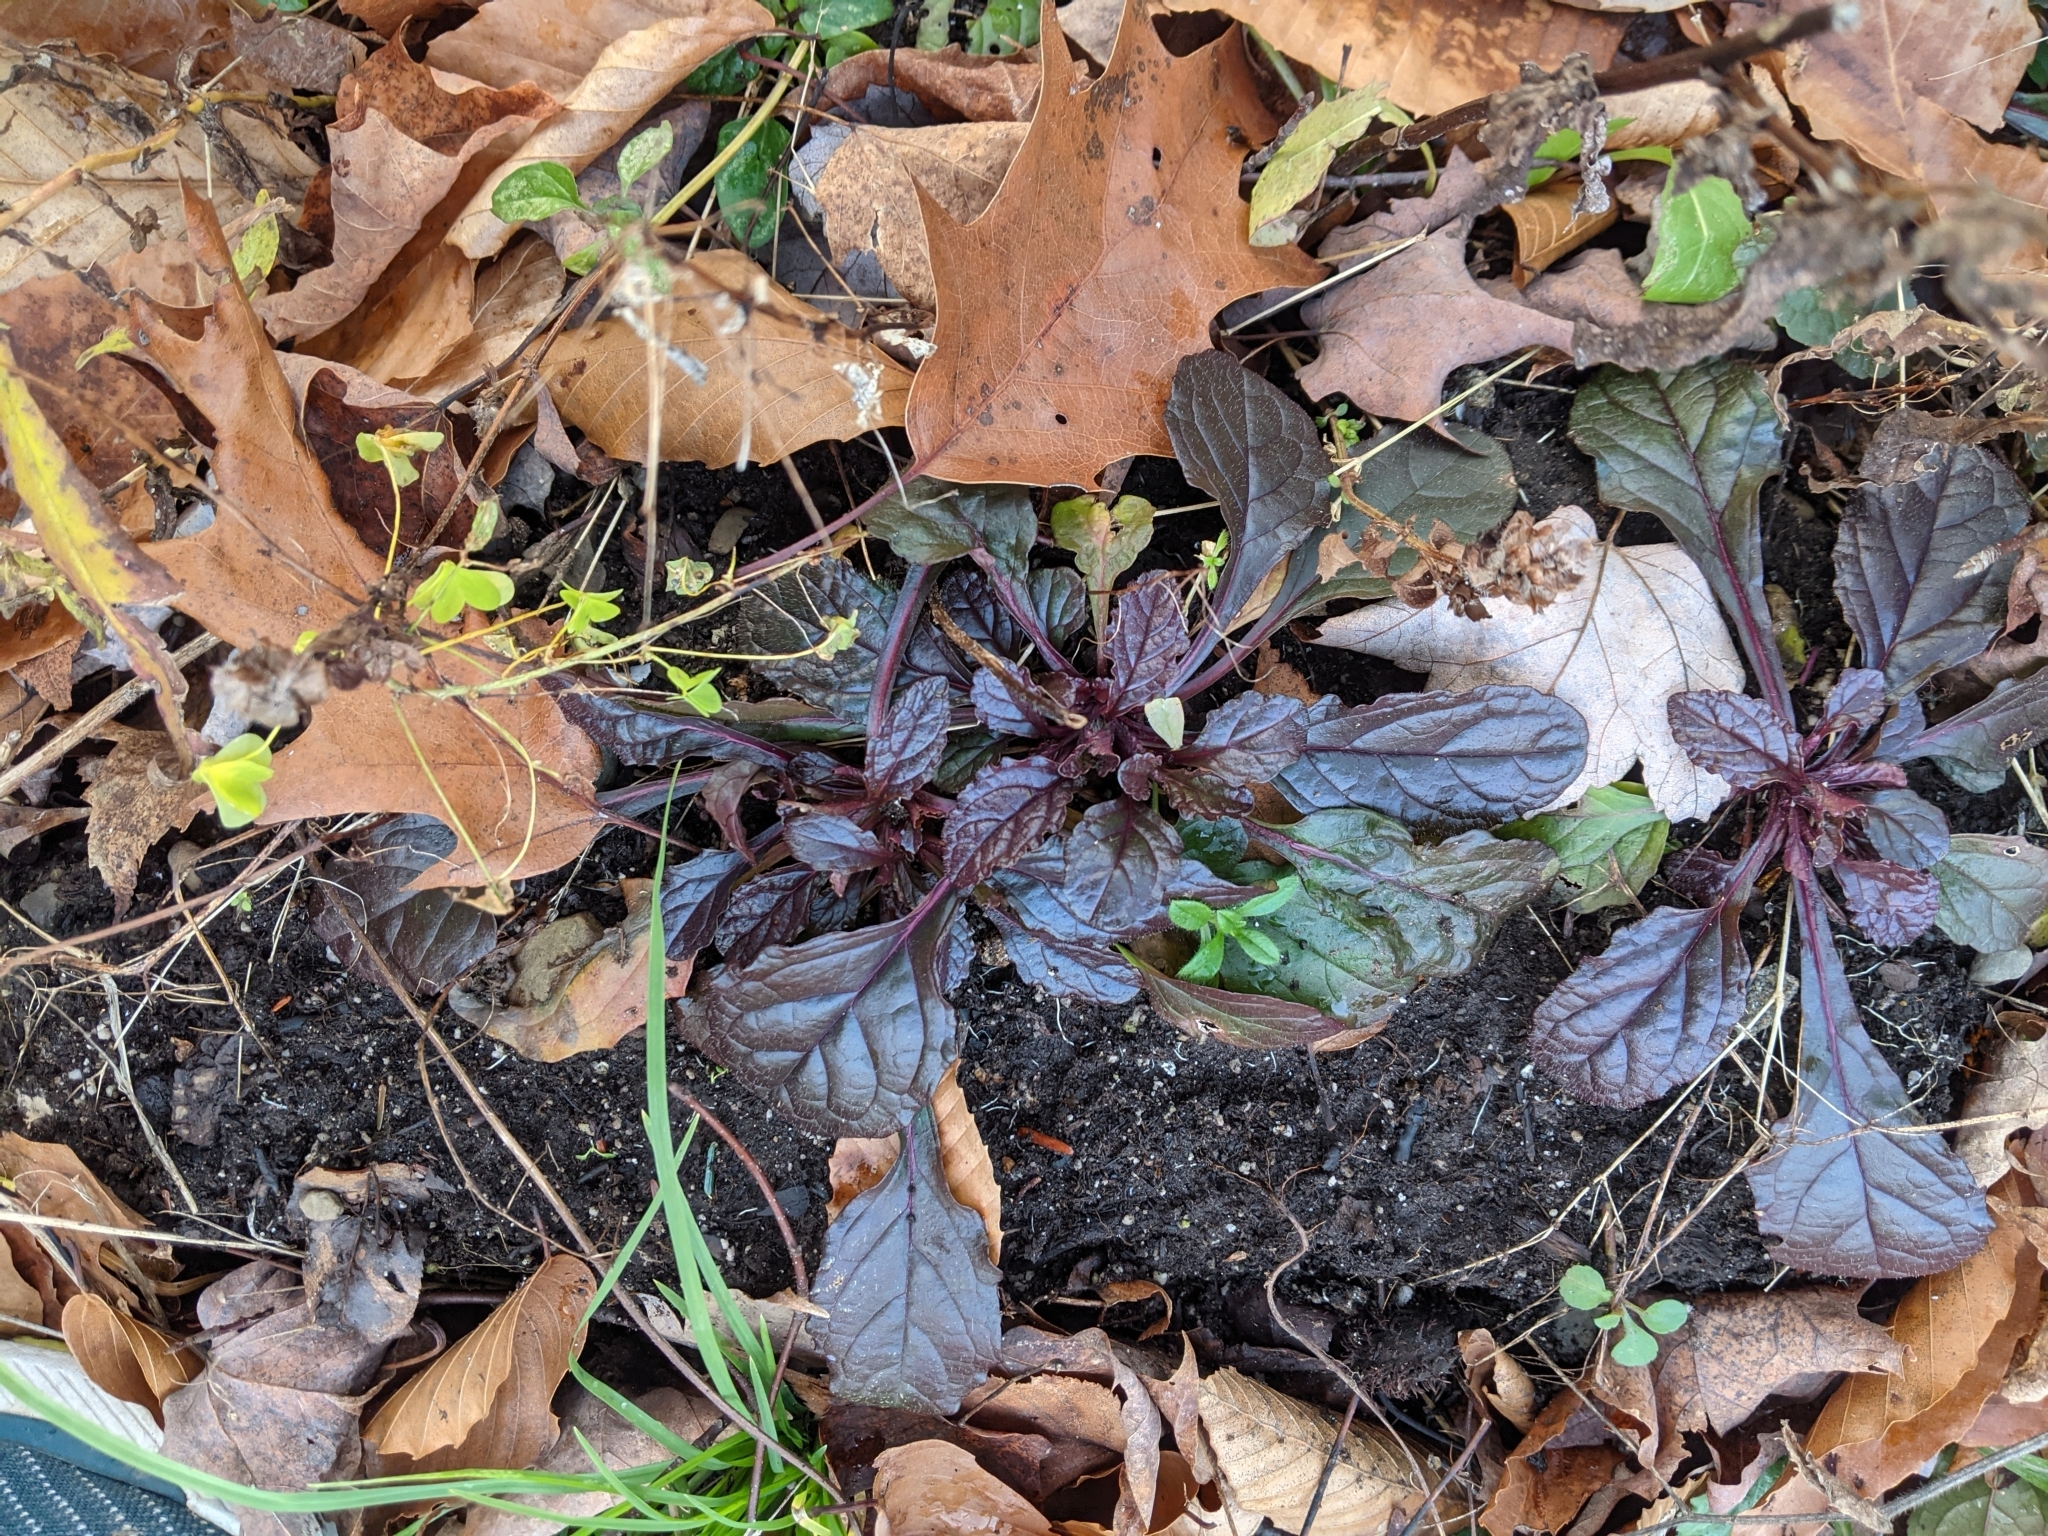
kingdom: Plantae
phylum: Tracheophyta
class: Magnoliopsida
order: Lamiales
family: Lamiaceae
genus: Ajuga
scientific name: Ajuga reptans
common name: Bugle
